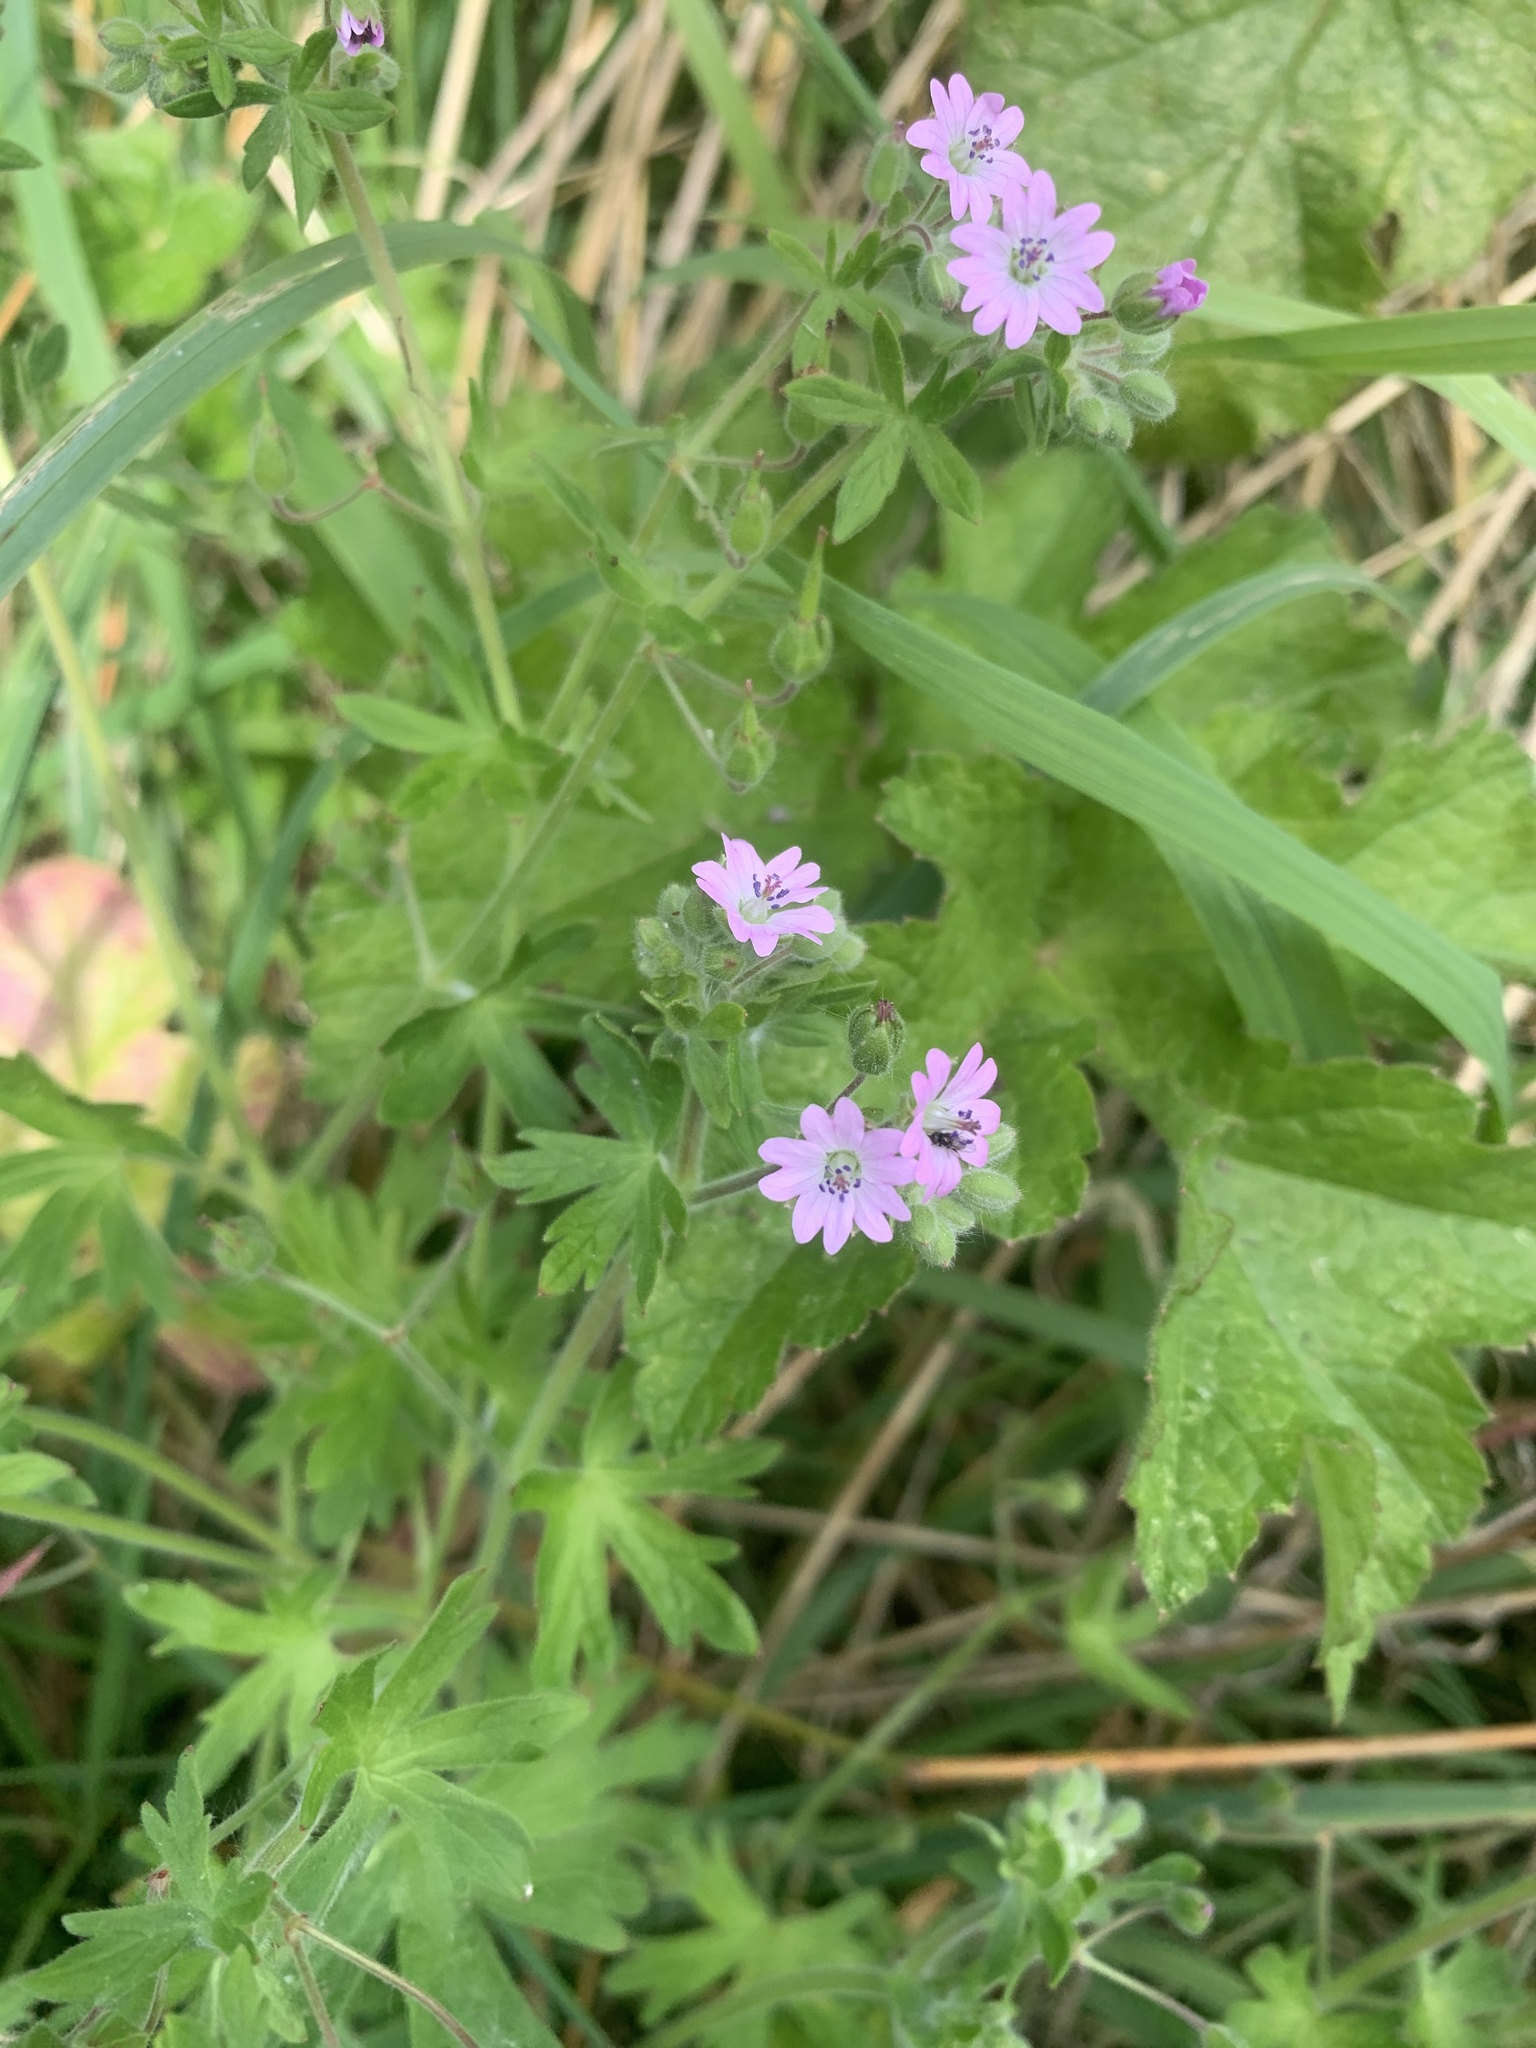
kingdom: Plantae
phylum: Tracheophyta
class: Magnoliopsida
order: Geraniales
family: Geraniaceae
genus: Geranium
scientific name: Geranium molle
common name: Dove's-foot crane's-bill
